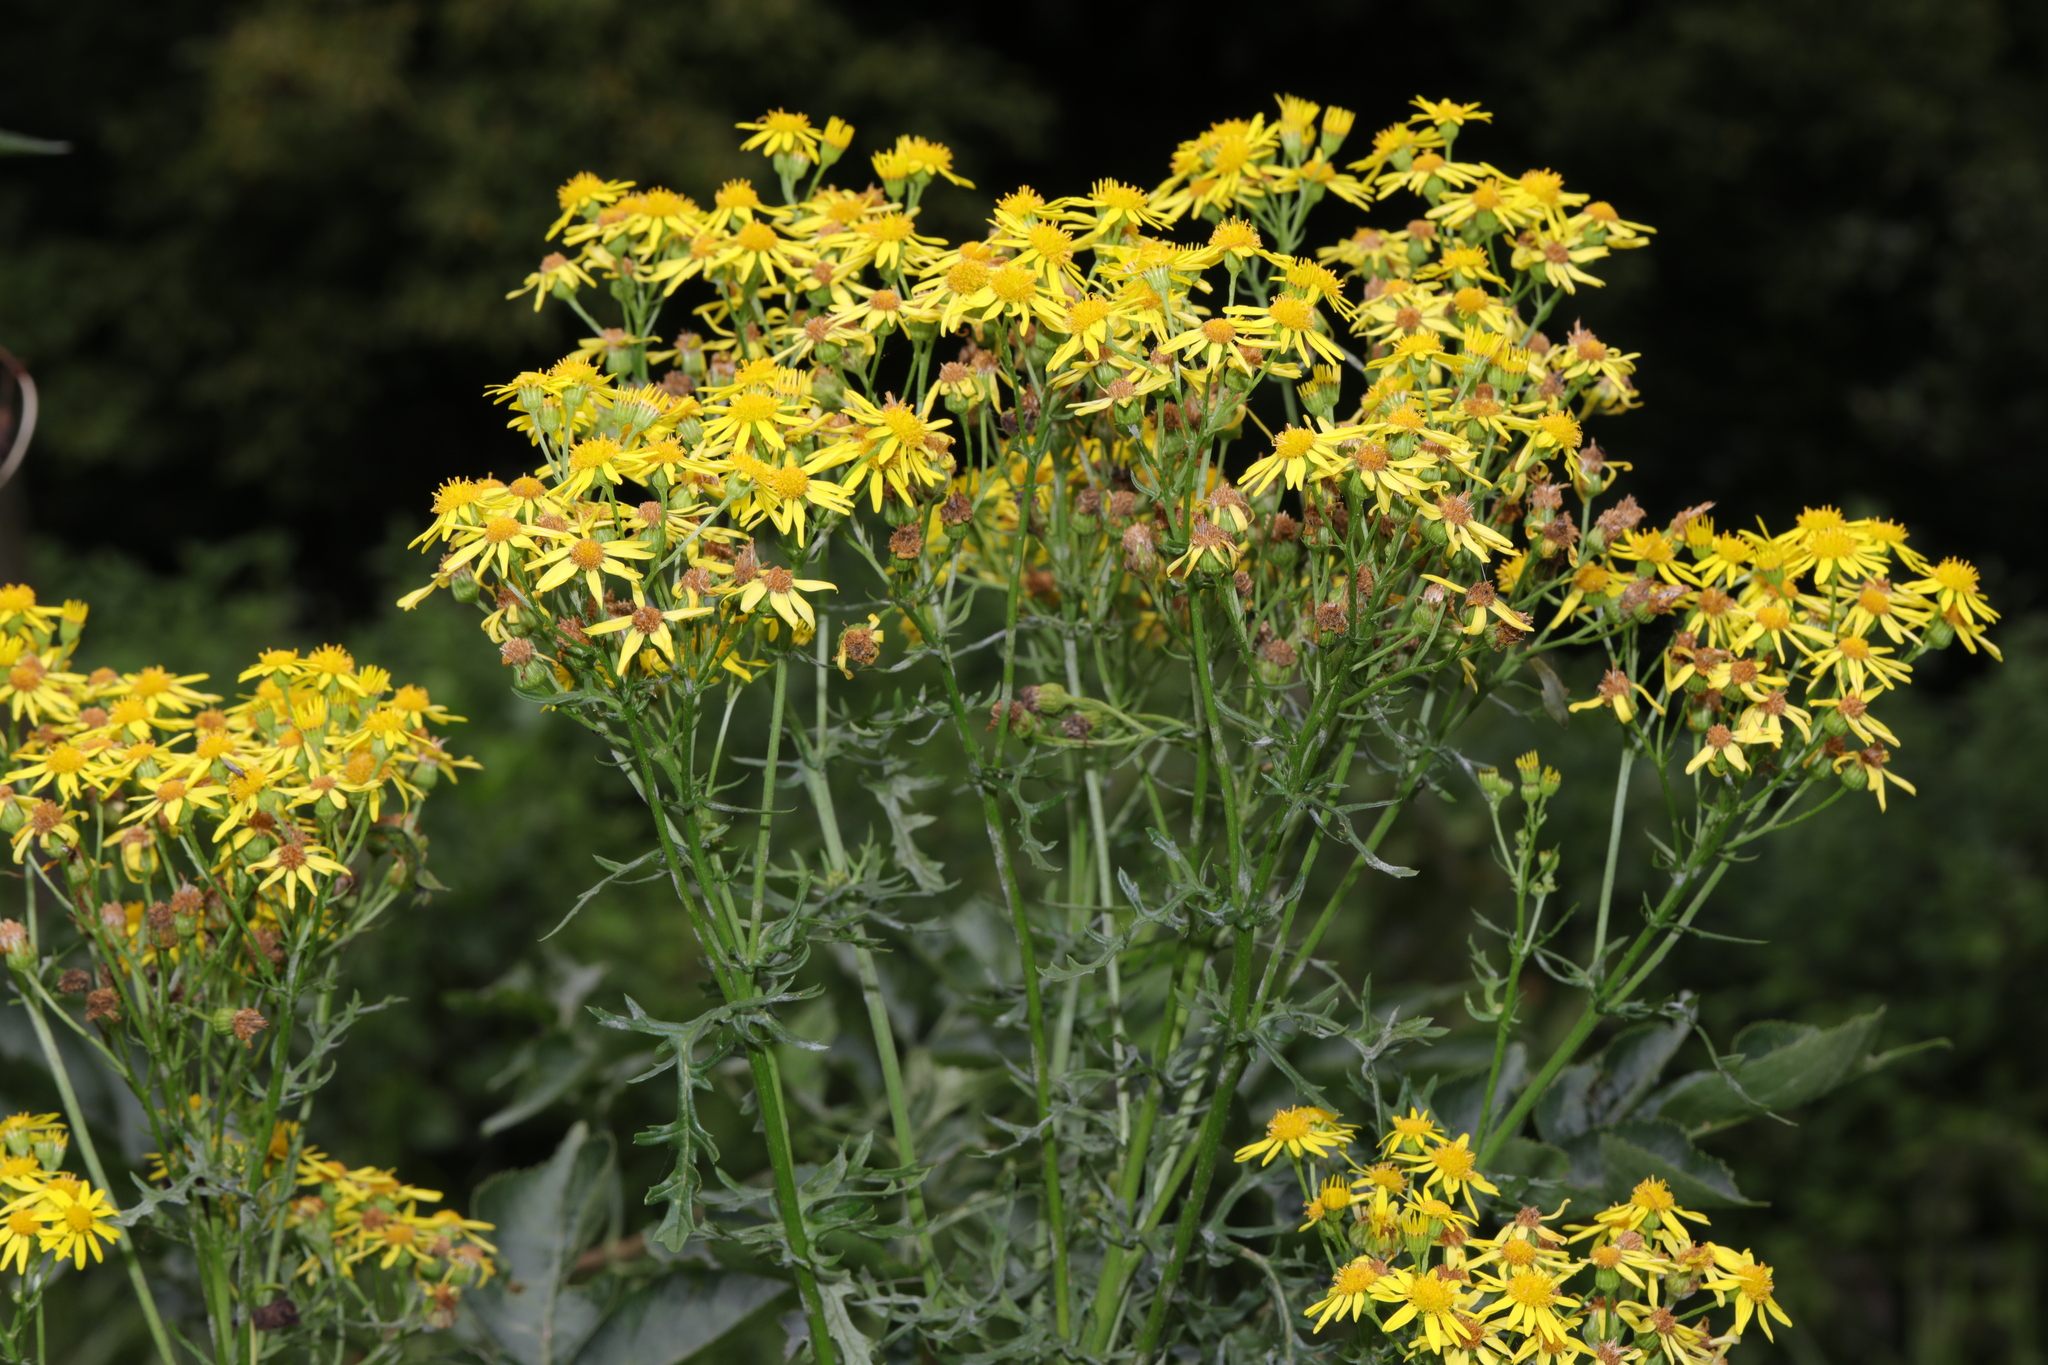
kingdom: Plantae
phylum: Tracheophyta
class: Magnoliopsida
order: Asterales
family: Asteraceae
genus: Jacobaea
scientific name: Jacobaea vulgaris
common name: Stinking willie
